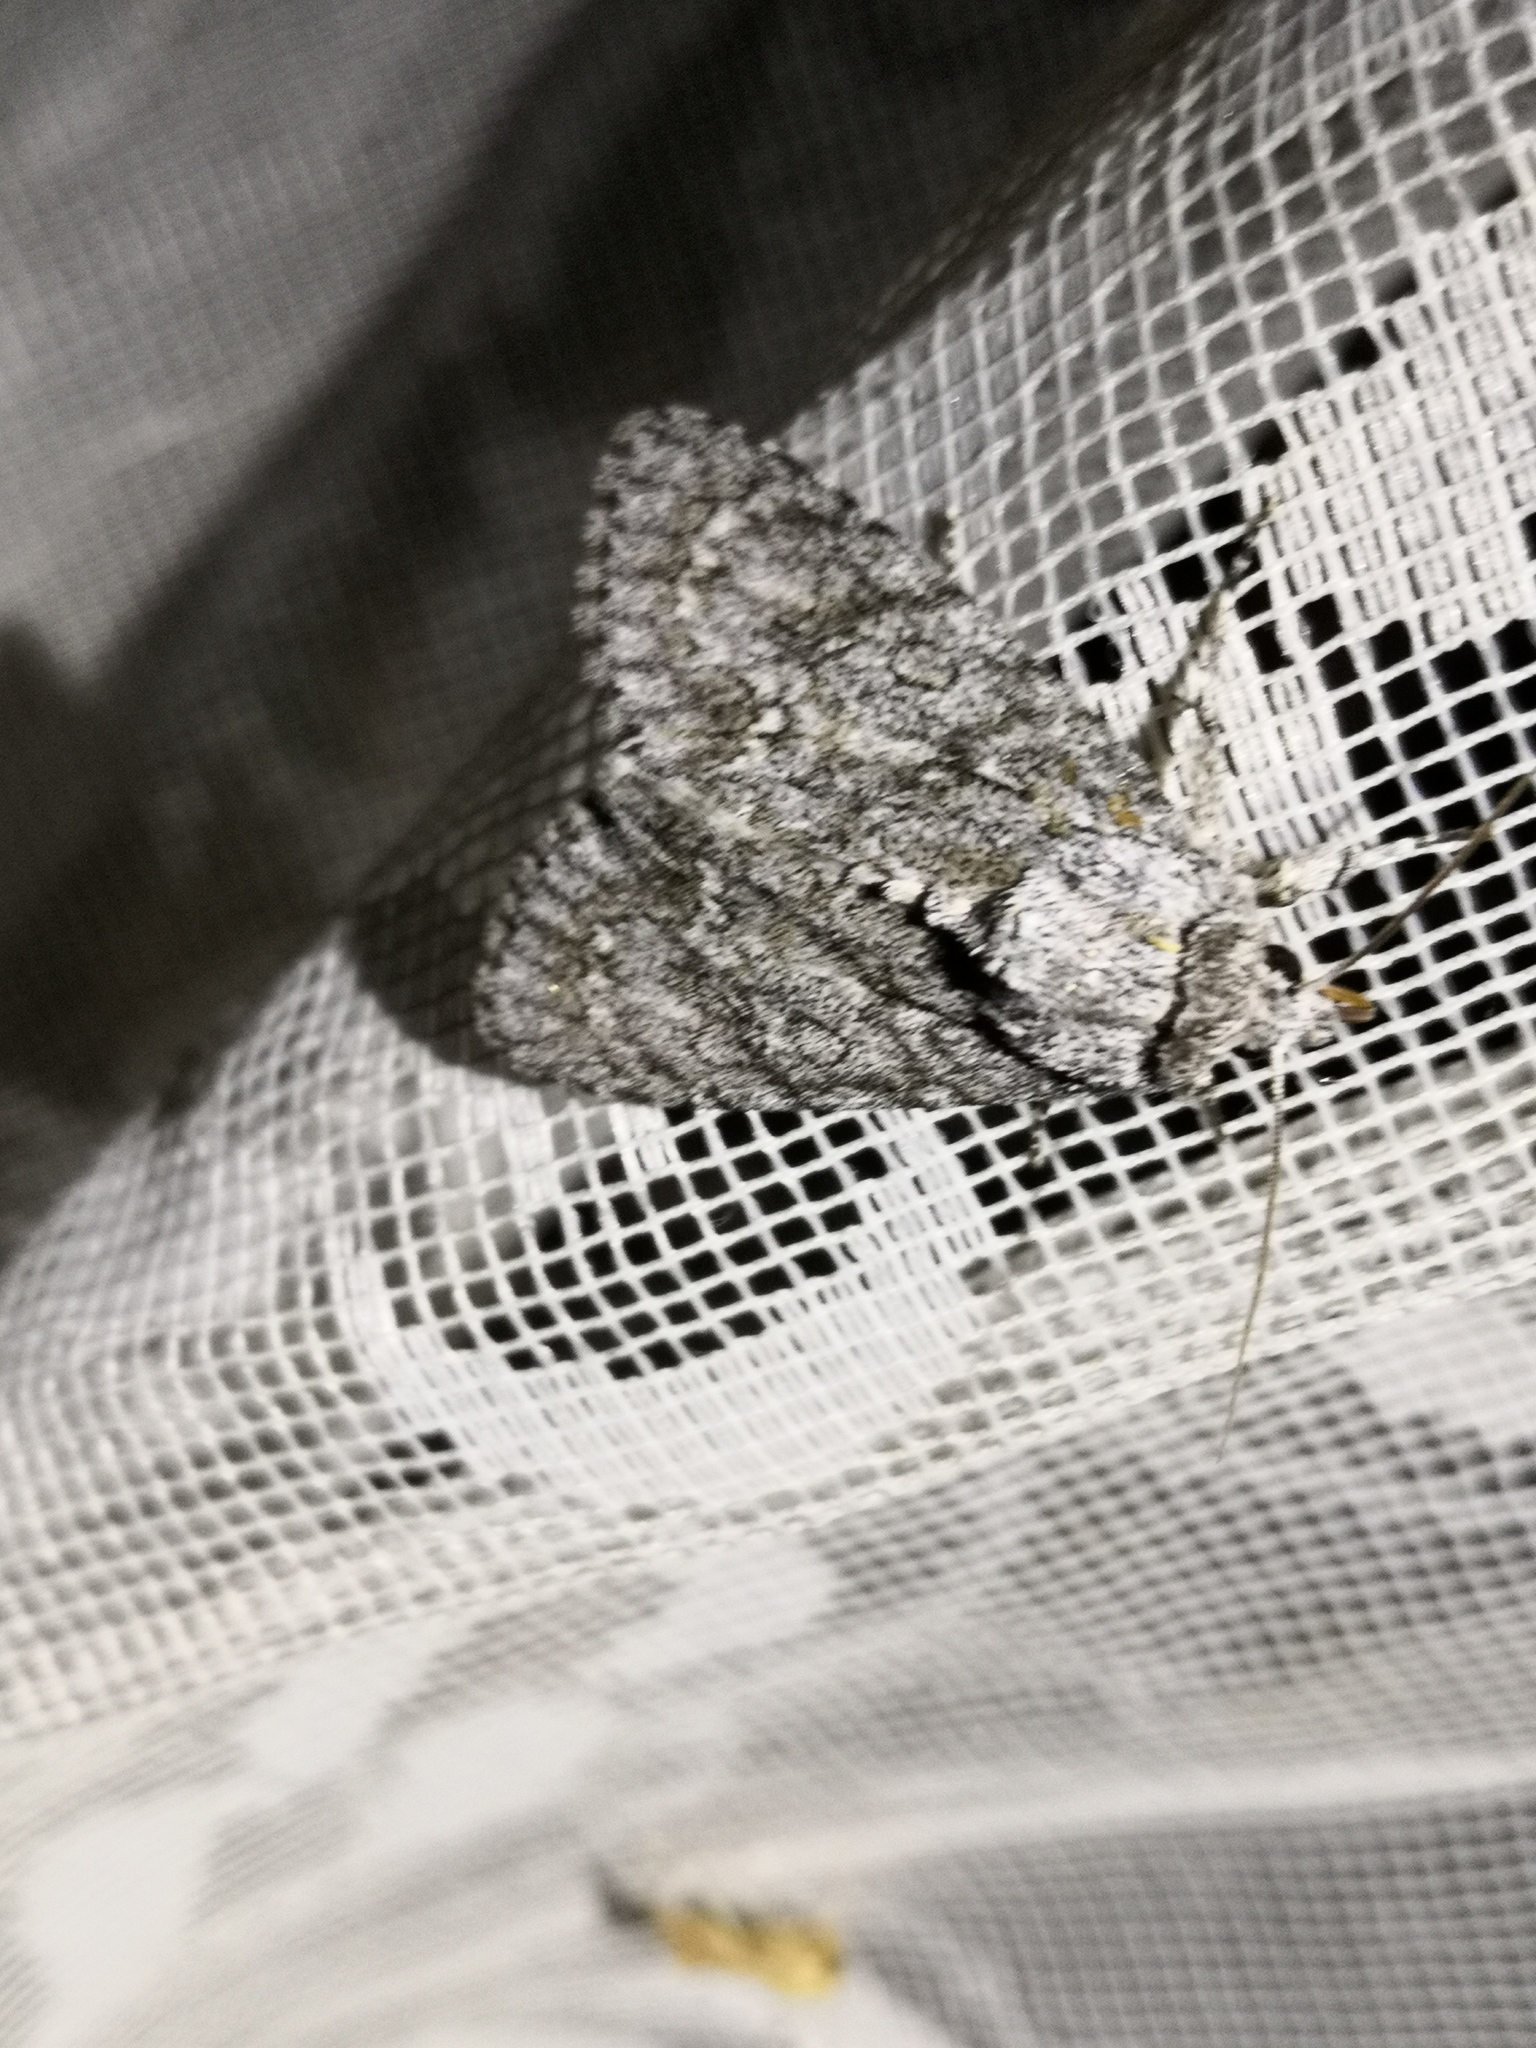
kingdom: Animalia
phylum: Arthropoda
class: Insecta
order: Lepidoptera
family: Noctuidae
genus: Acronicta
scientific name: Acronicta aceris
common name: Sycamore
